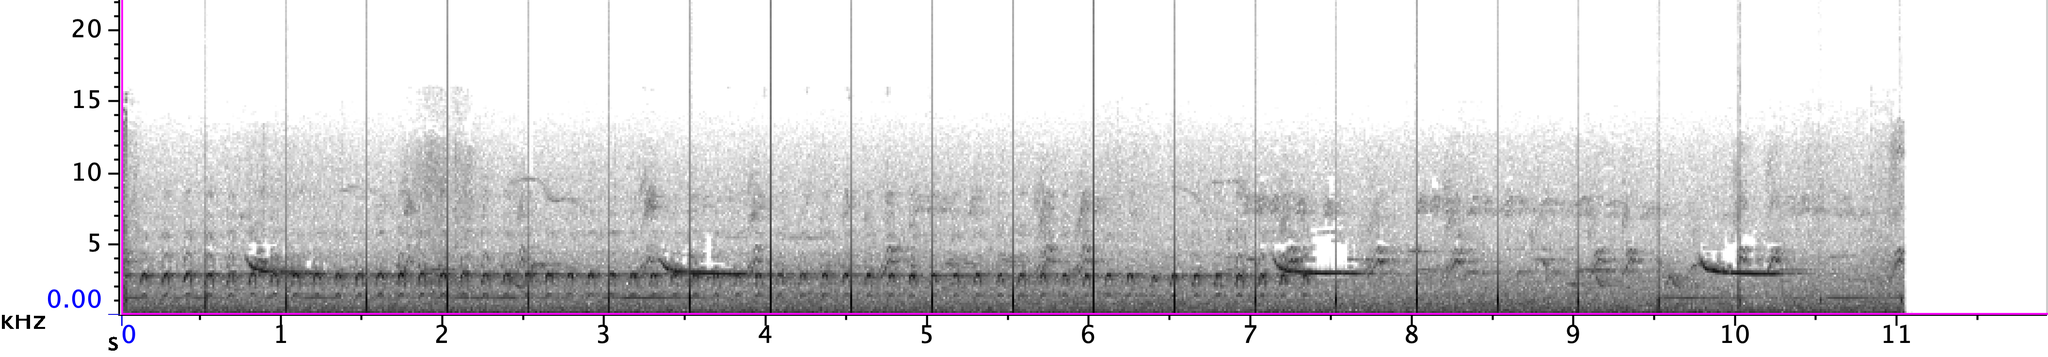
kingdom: Animalia
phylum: Chordata
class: Aves
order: Piciformes
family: Picidae
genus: Colaptes
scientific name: Colaptes auratus
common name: Northern flicker
